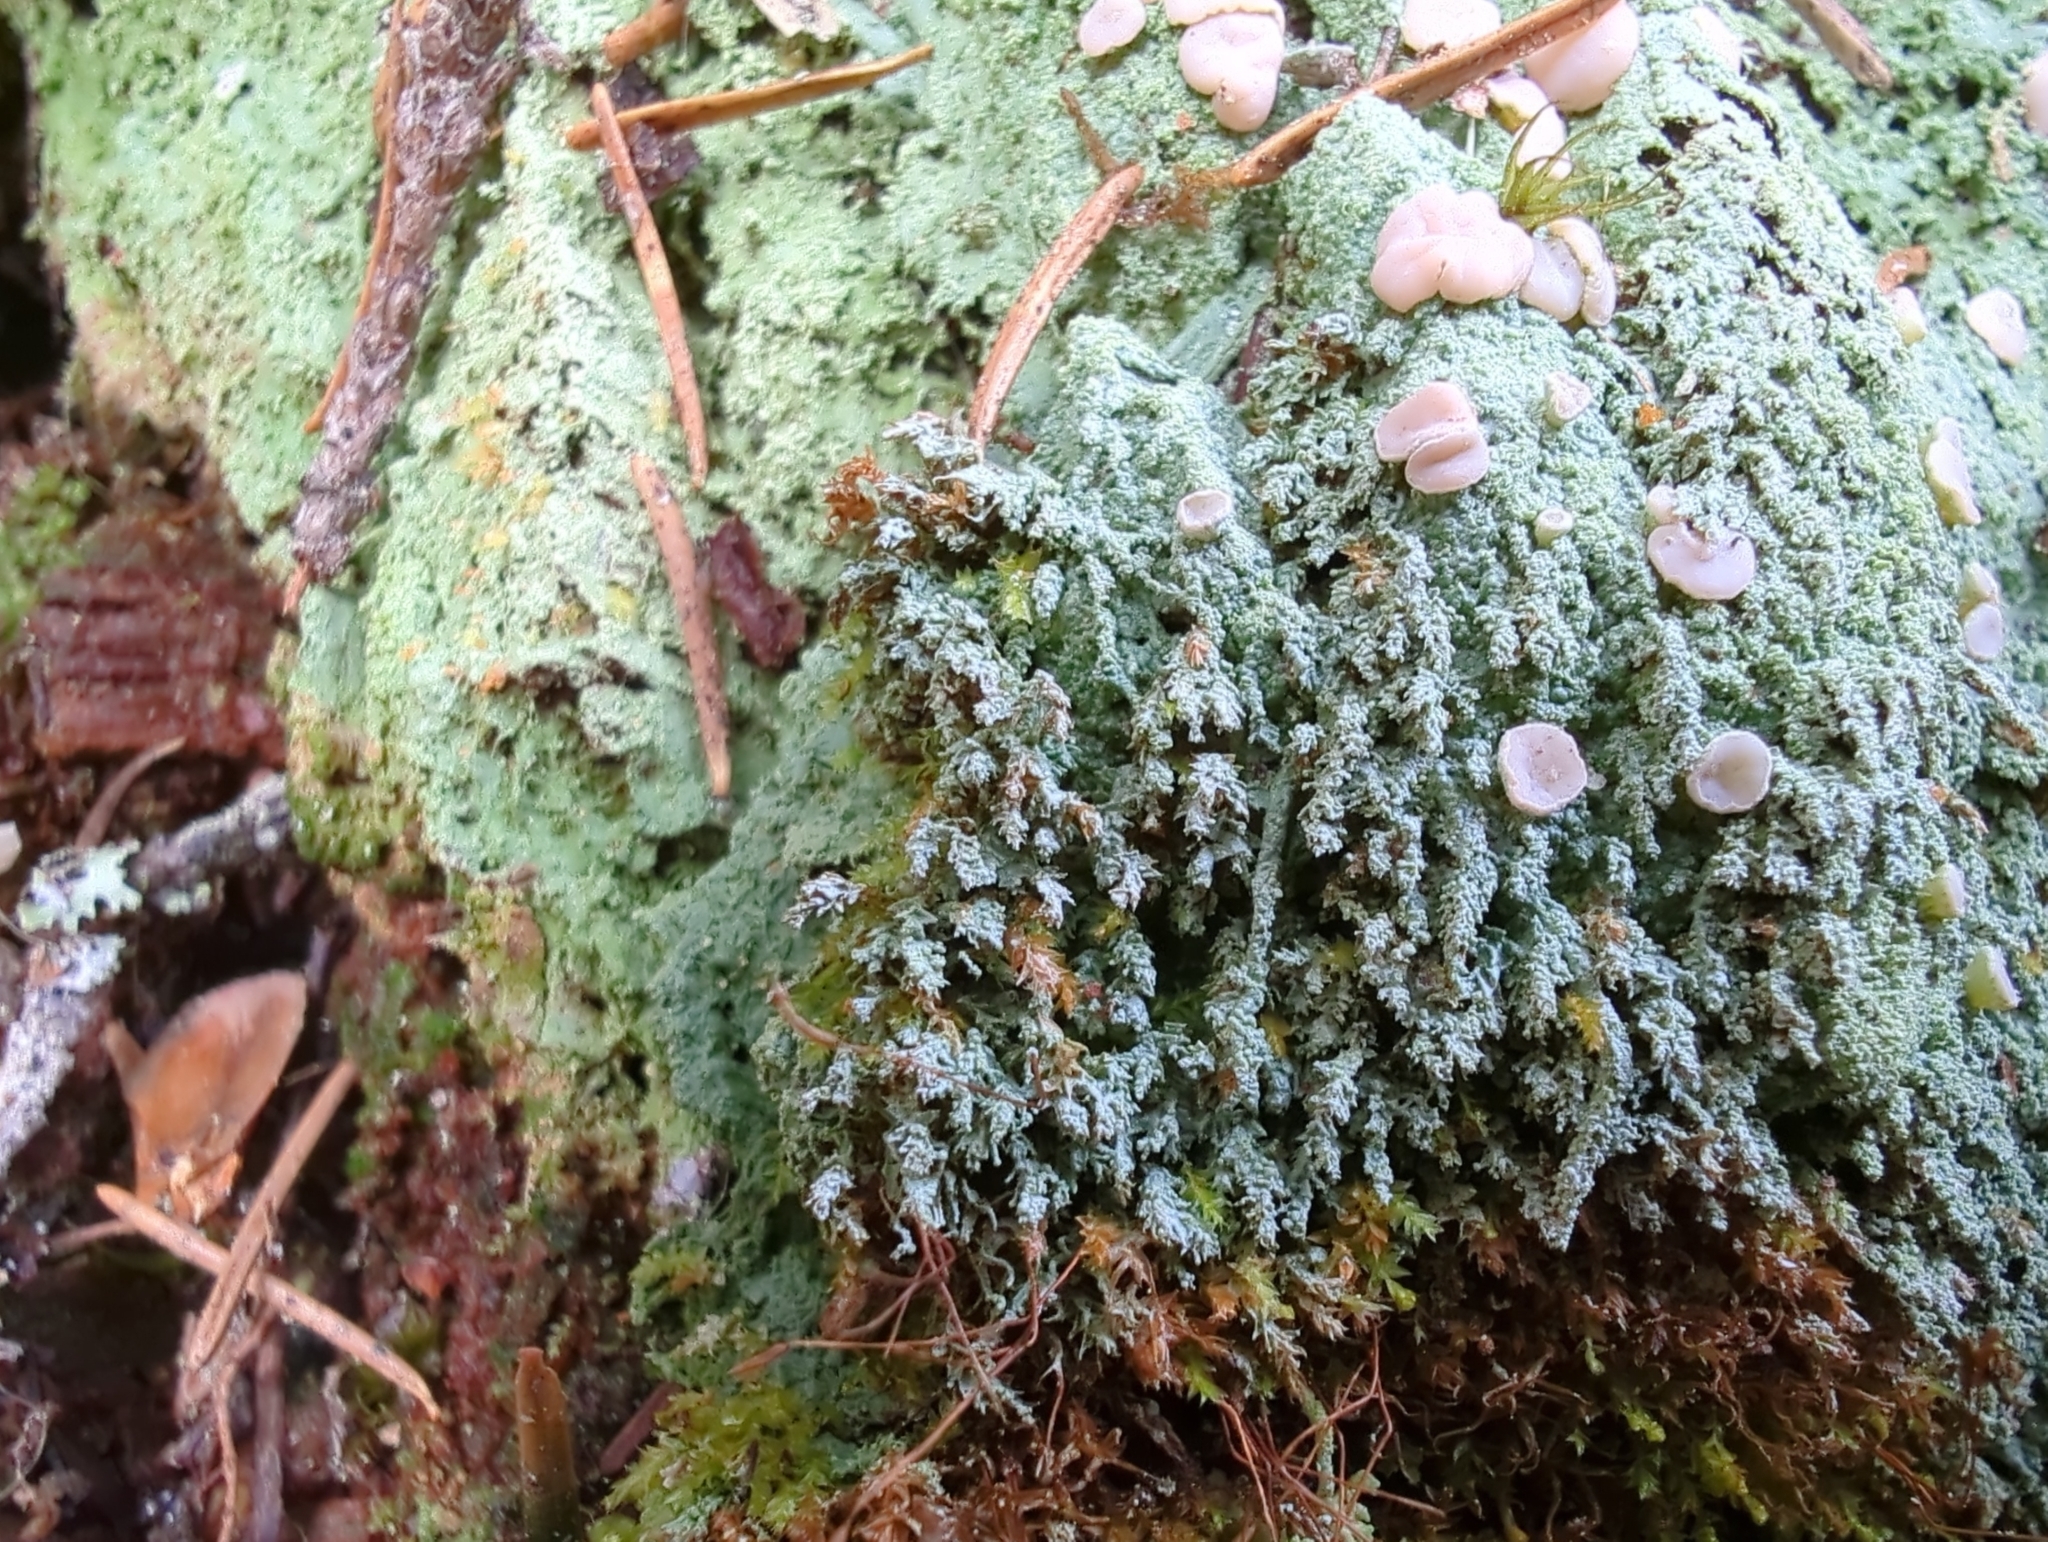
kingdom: Fungi
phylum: Ascomycota
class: Lecanoromycetes
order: Pertusariales
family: Icmadophilaceae
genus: Icmadophila
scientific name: Icmadophila ericetorum
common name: Candy lichen
